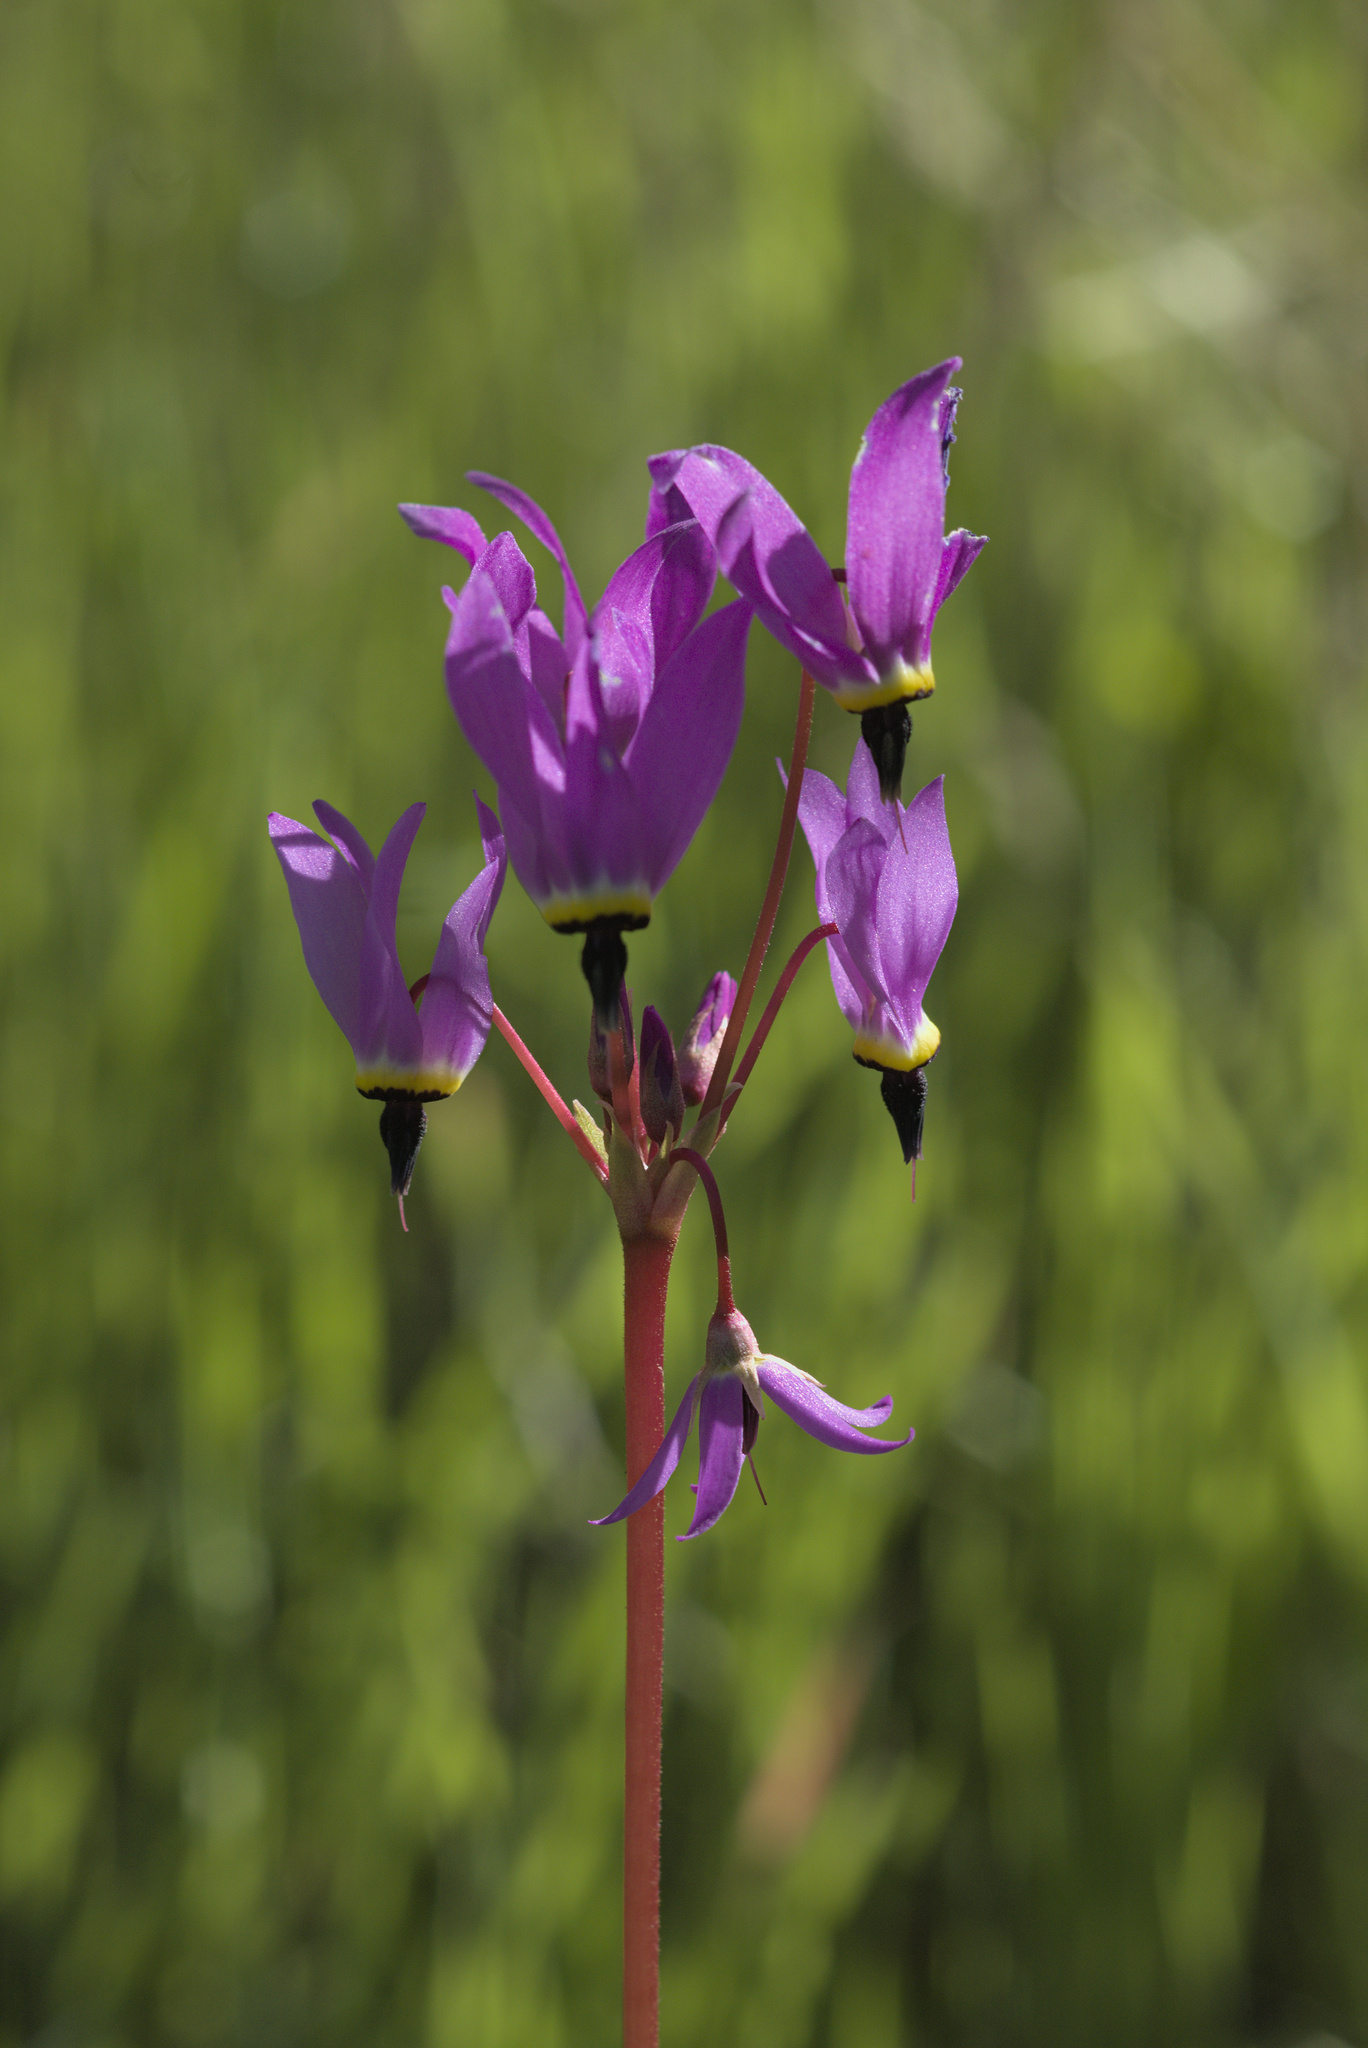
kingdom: Plantae
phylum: Tracheophyta
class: Magnoliopsida
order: Ericales
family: Primulaceae
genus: Dodecatheon
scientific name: Dodecatheon hendersonii
